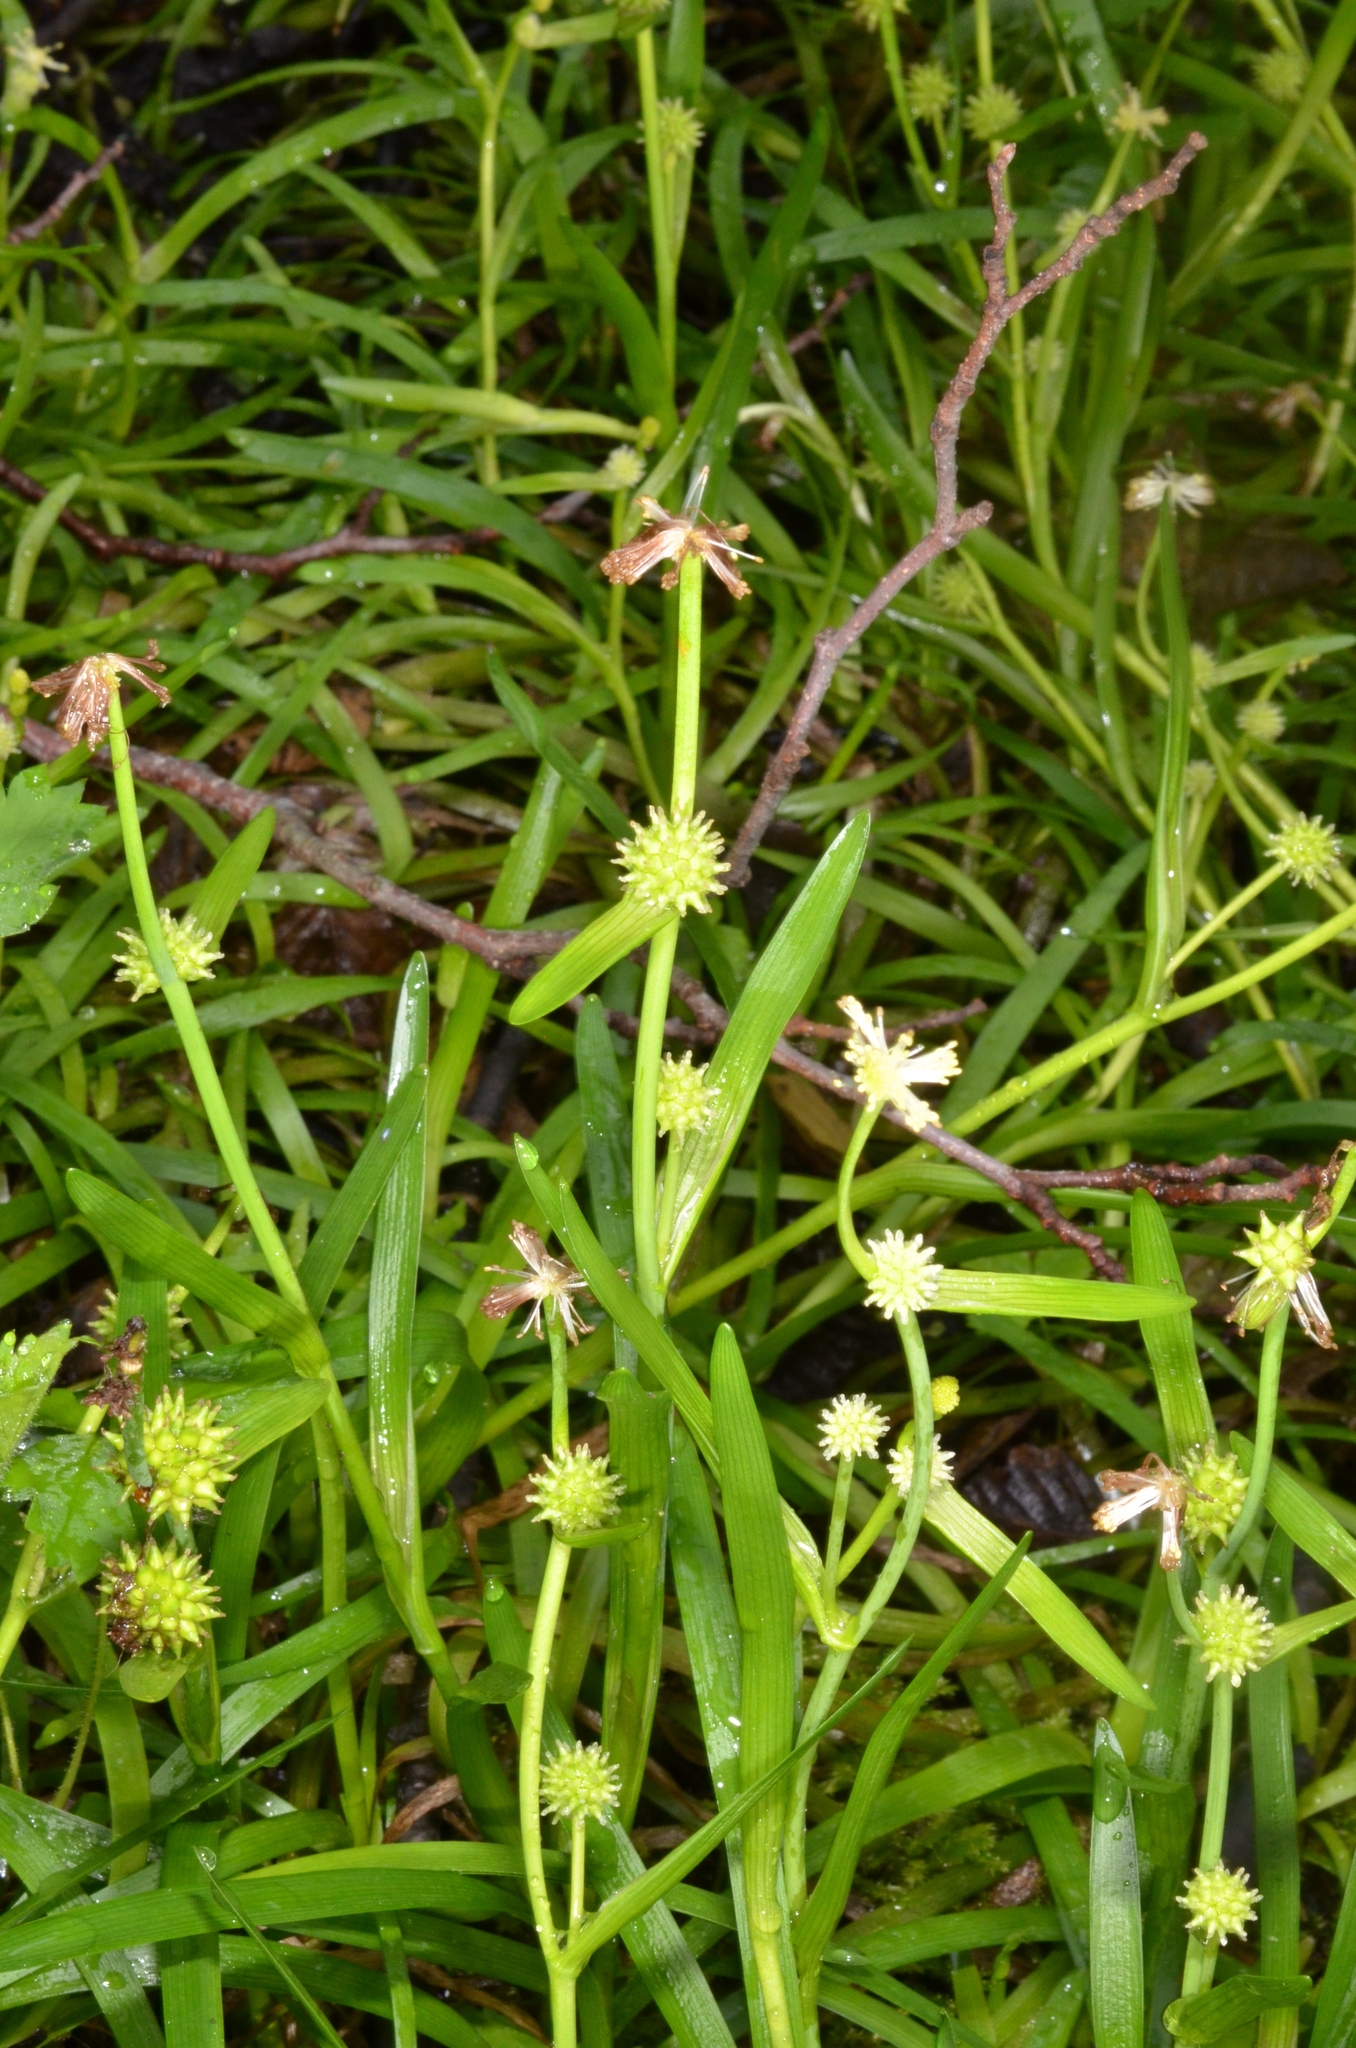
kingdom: Plantae
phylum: Tracheophyta
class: Liliopsida
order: Poales
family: Typhaceae
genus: Sparganium
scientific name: Sparganium natans
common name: Least bur-reed
